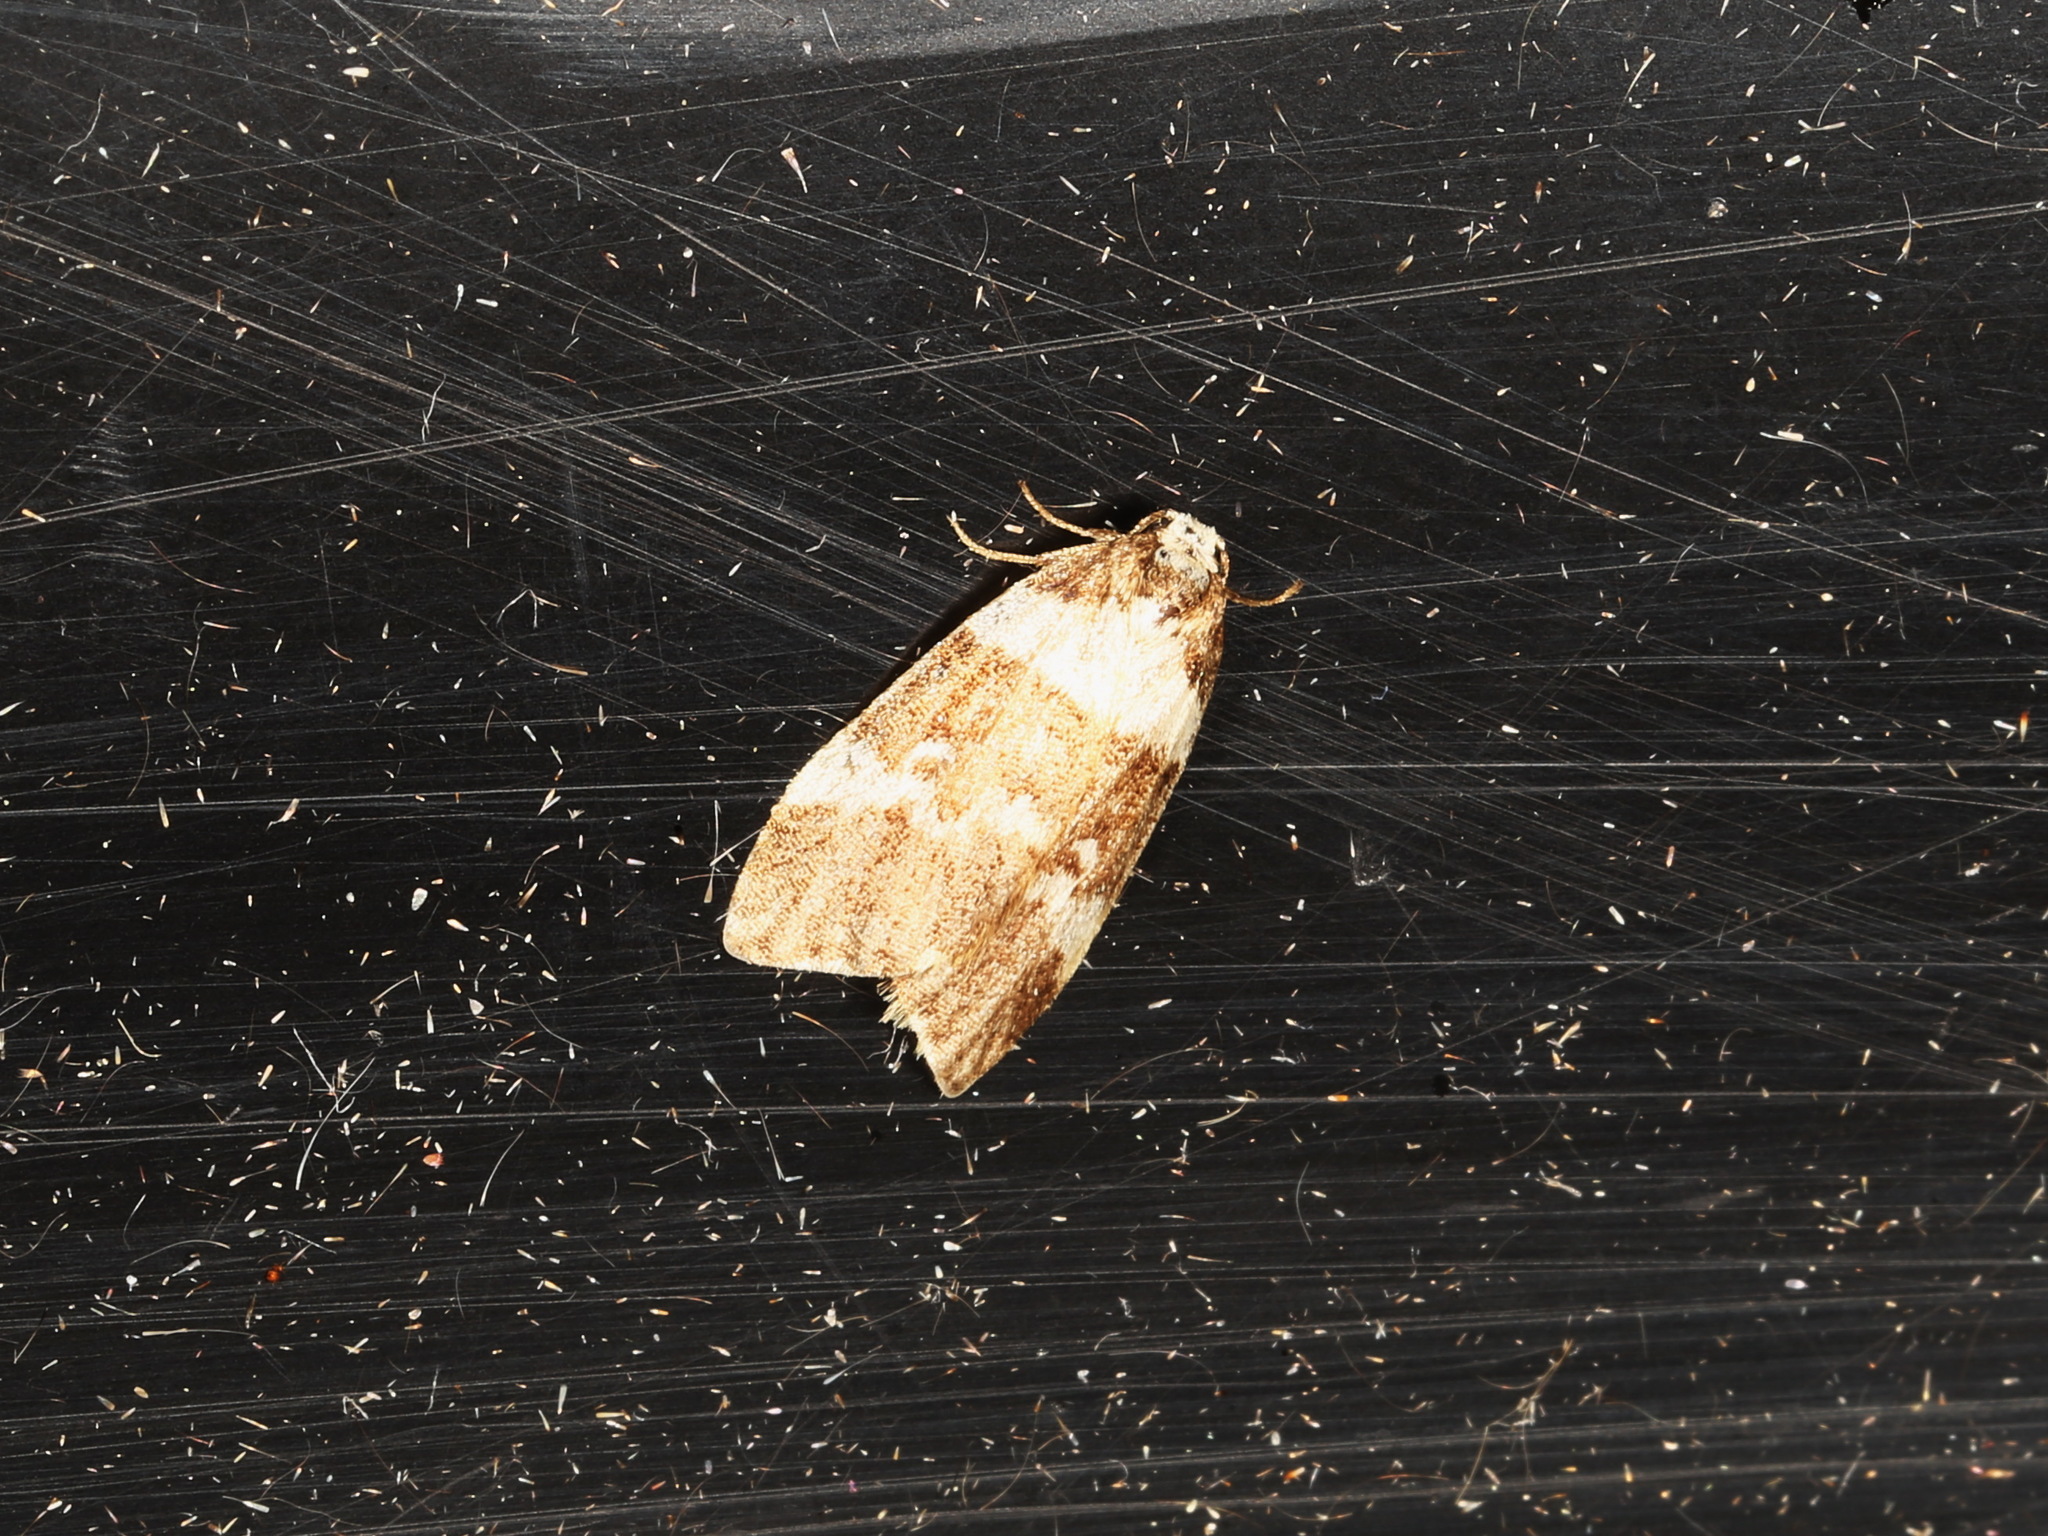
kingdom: Animalia
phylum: Arthropoda
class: Insecta
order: Lepidoptera
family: Erebidae
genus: Halone
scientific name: Halone sejuncta
